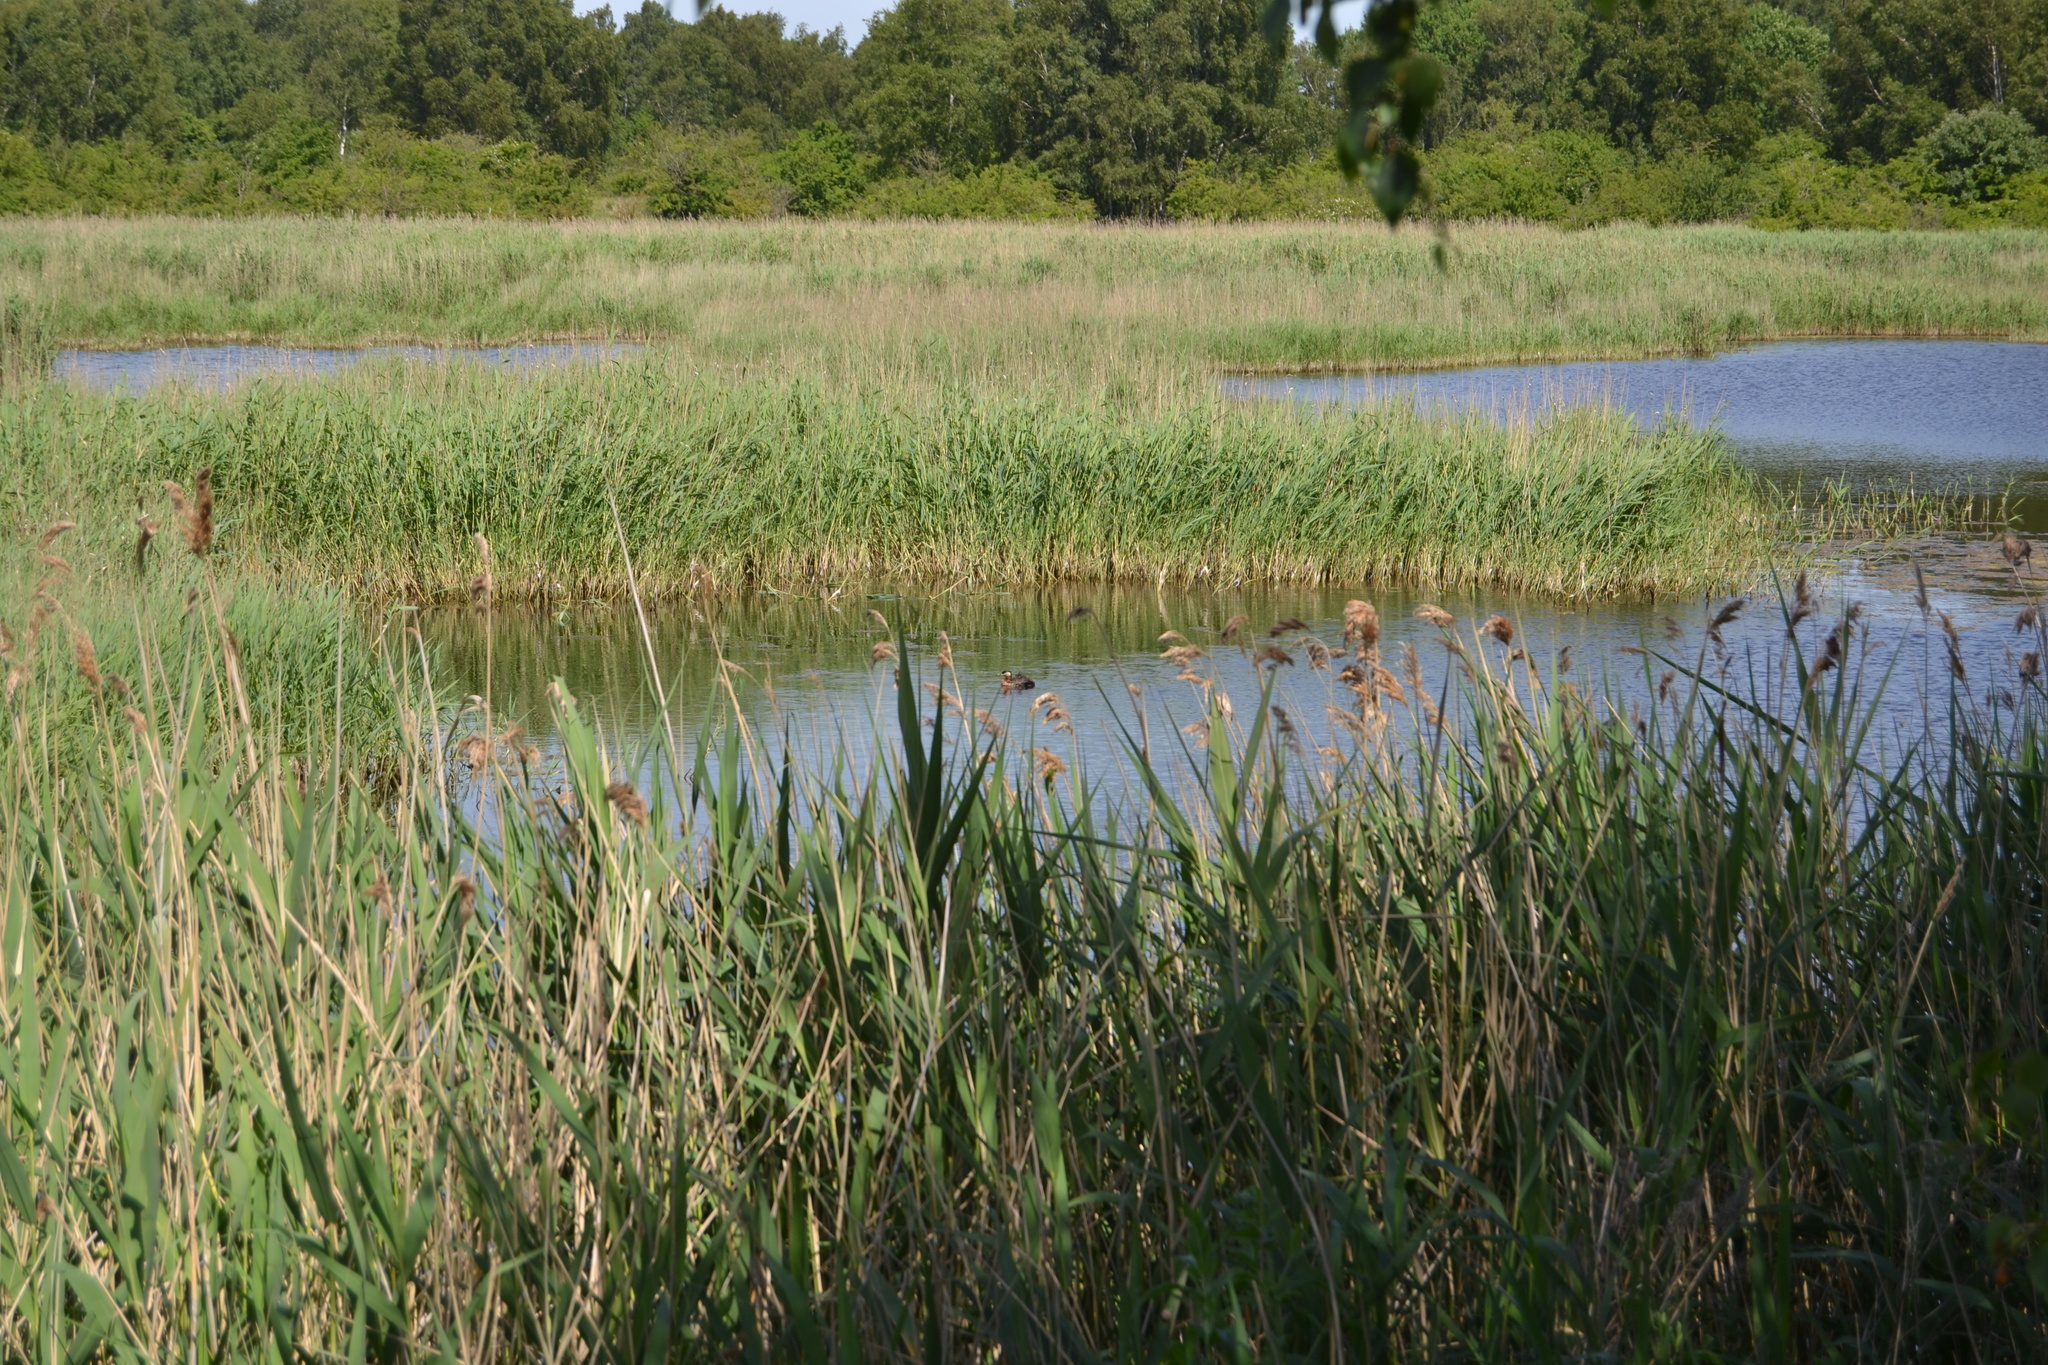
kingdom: Animalia
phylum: Chordata
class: Aves
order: Podicipediformes
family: Podicipedidae
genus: Podiceps
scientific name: Podiceps grisegena
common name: Red-necked grebe
